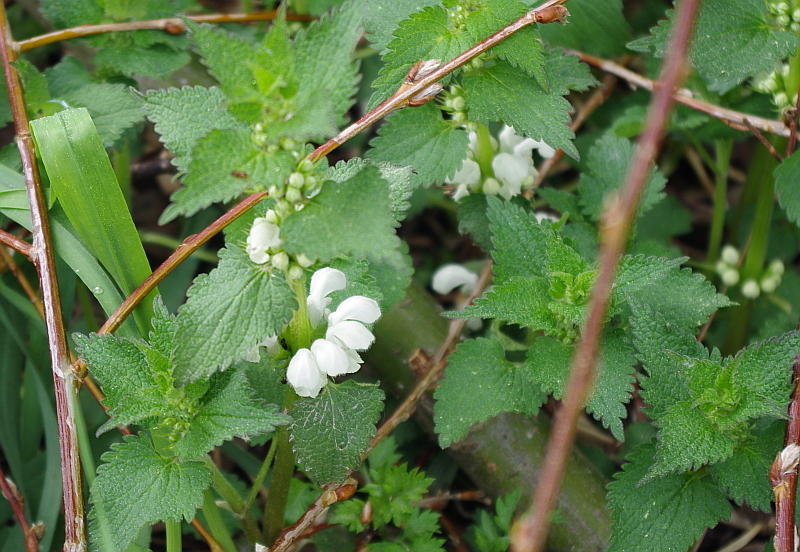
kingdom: Plantae
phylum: Tracheophyta
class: Magnoliopsida
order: Lamiales
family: Lamiaceae
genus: Lamium
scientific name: Lamium album
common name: White dead-nettle
